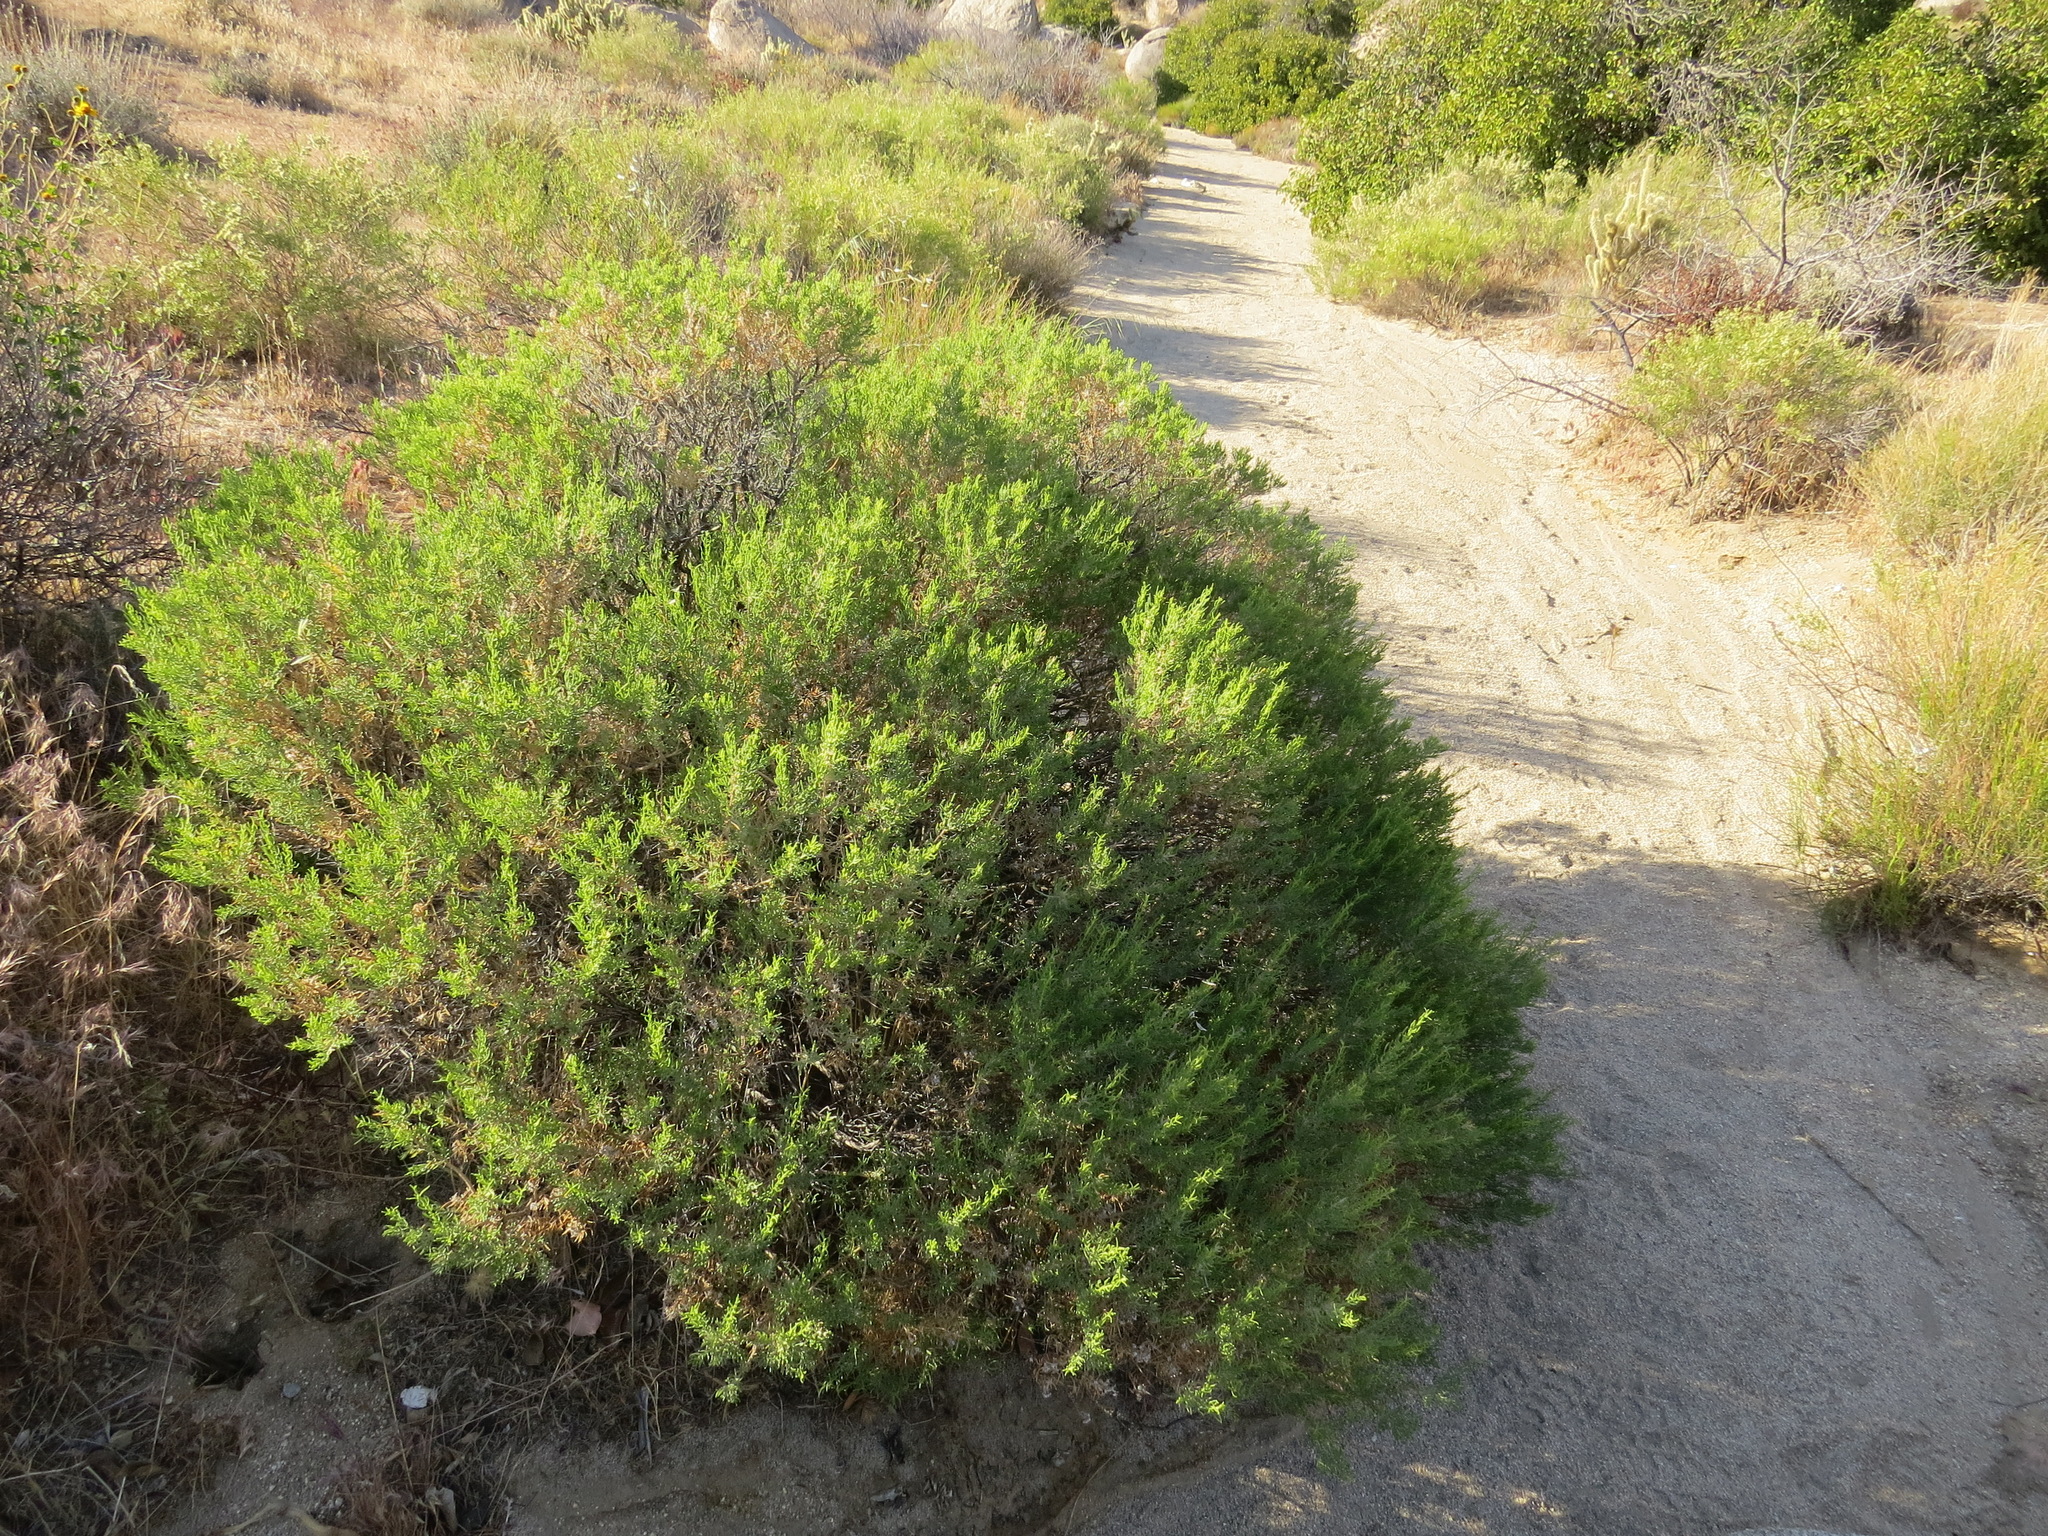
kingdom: Plantae
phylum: Tracheophyta
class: Magnoliopsida
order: Asterales
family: Asteraceae
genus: Ericameria
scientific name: Ericameria brachylepis
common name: Boundary goldenbush
